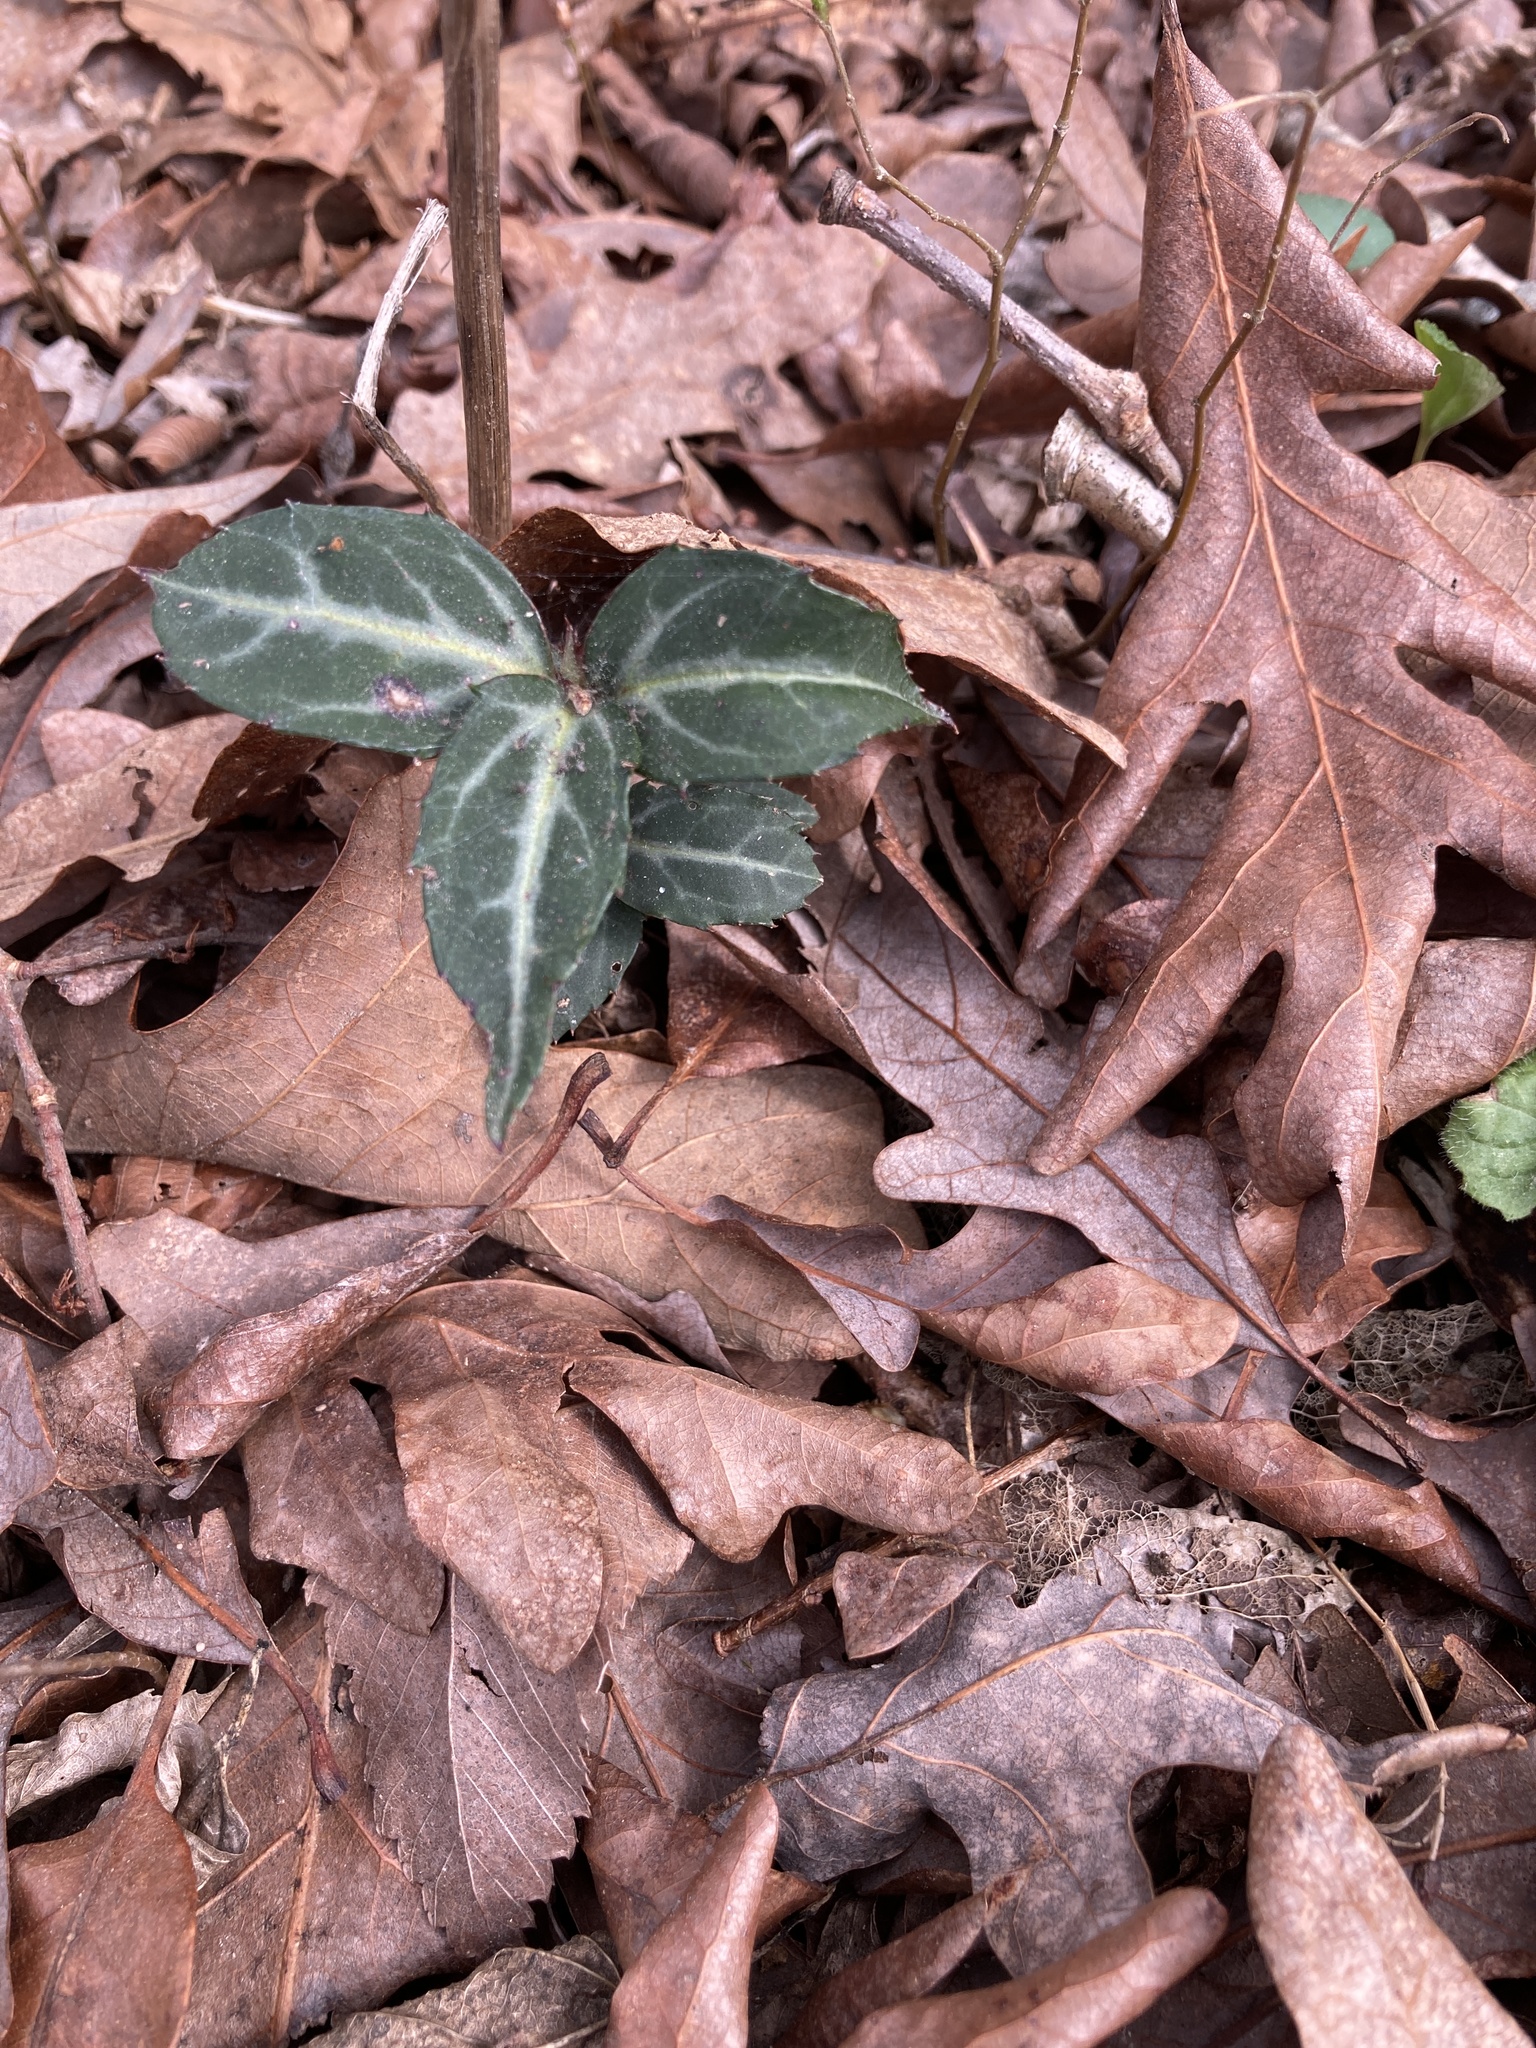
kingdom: Plantae
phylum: Tracheophyta
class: Magnoliopsida
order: Ericales
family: Ericaceae
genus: Chimaphila
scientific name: Chimaphila maculata
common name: Spotted pipsissewa
